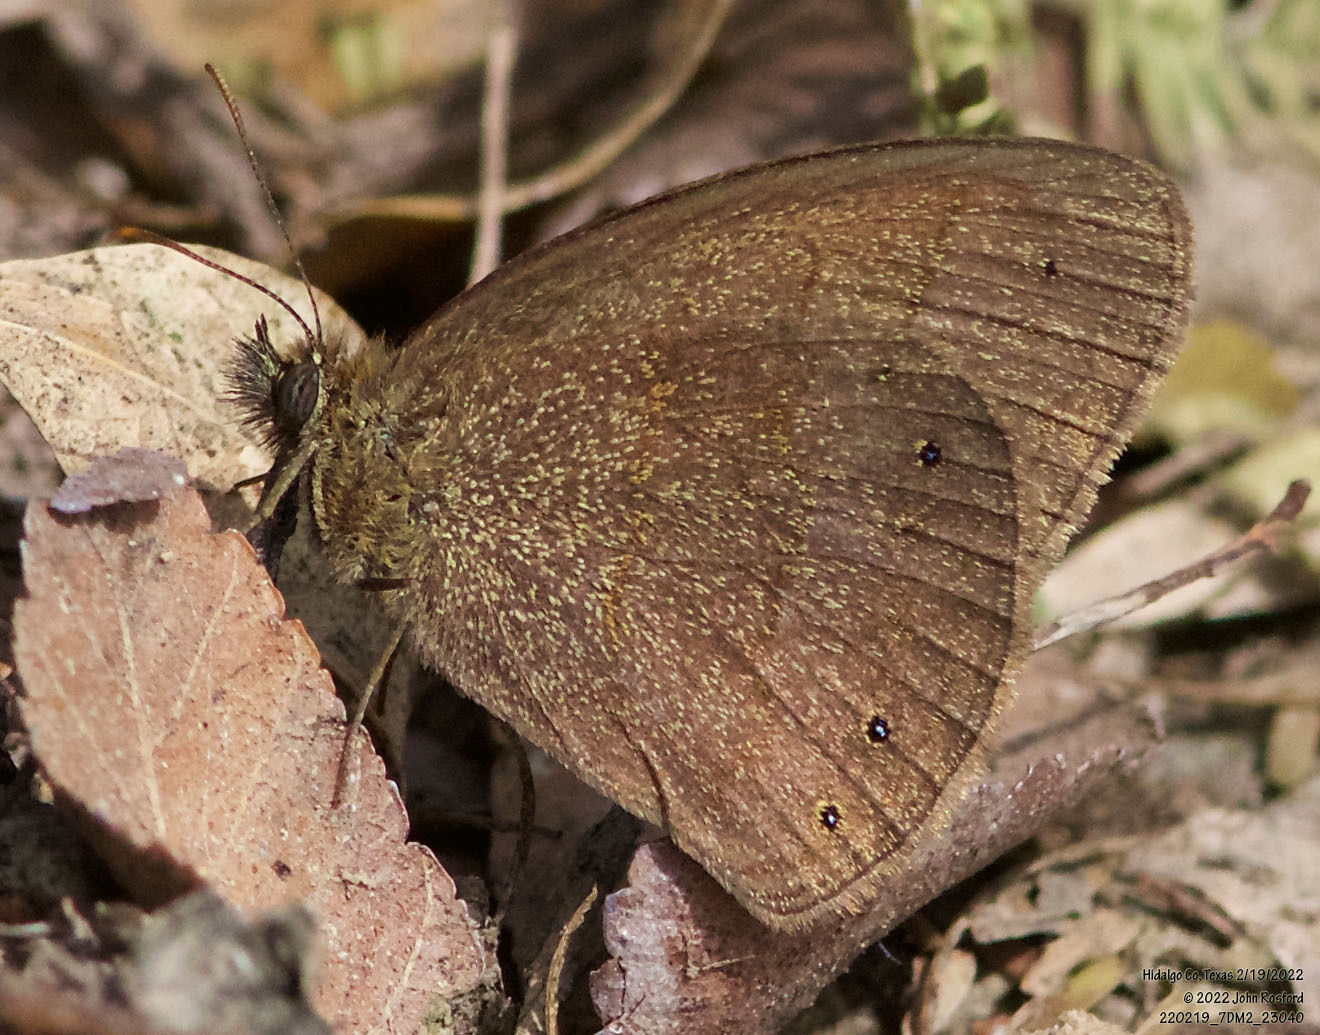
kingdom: Animalia
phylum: Arthropoda
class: Insecta
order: Lepidoptera
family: Nymphalidae
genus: Hermeuptychia
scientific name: Hermeuptychia hermybius
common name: South texas satyr
